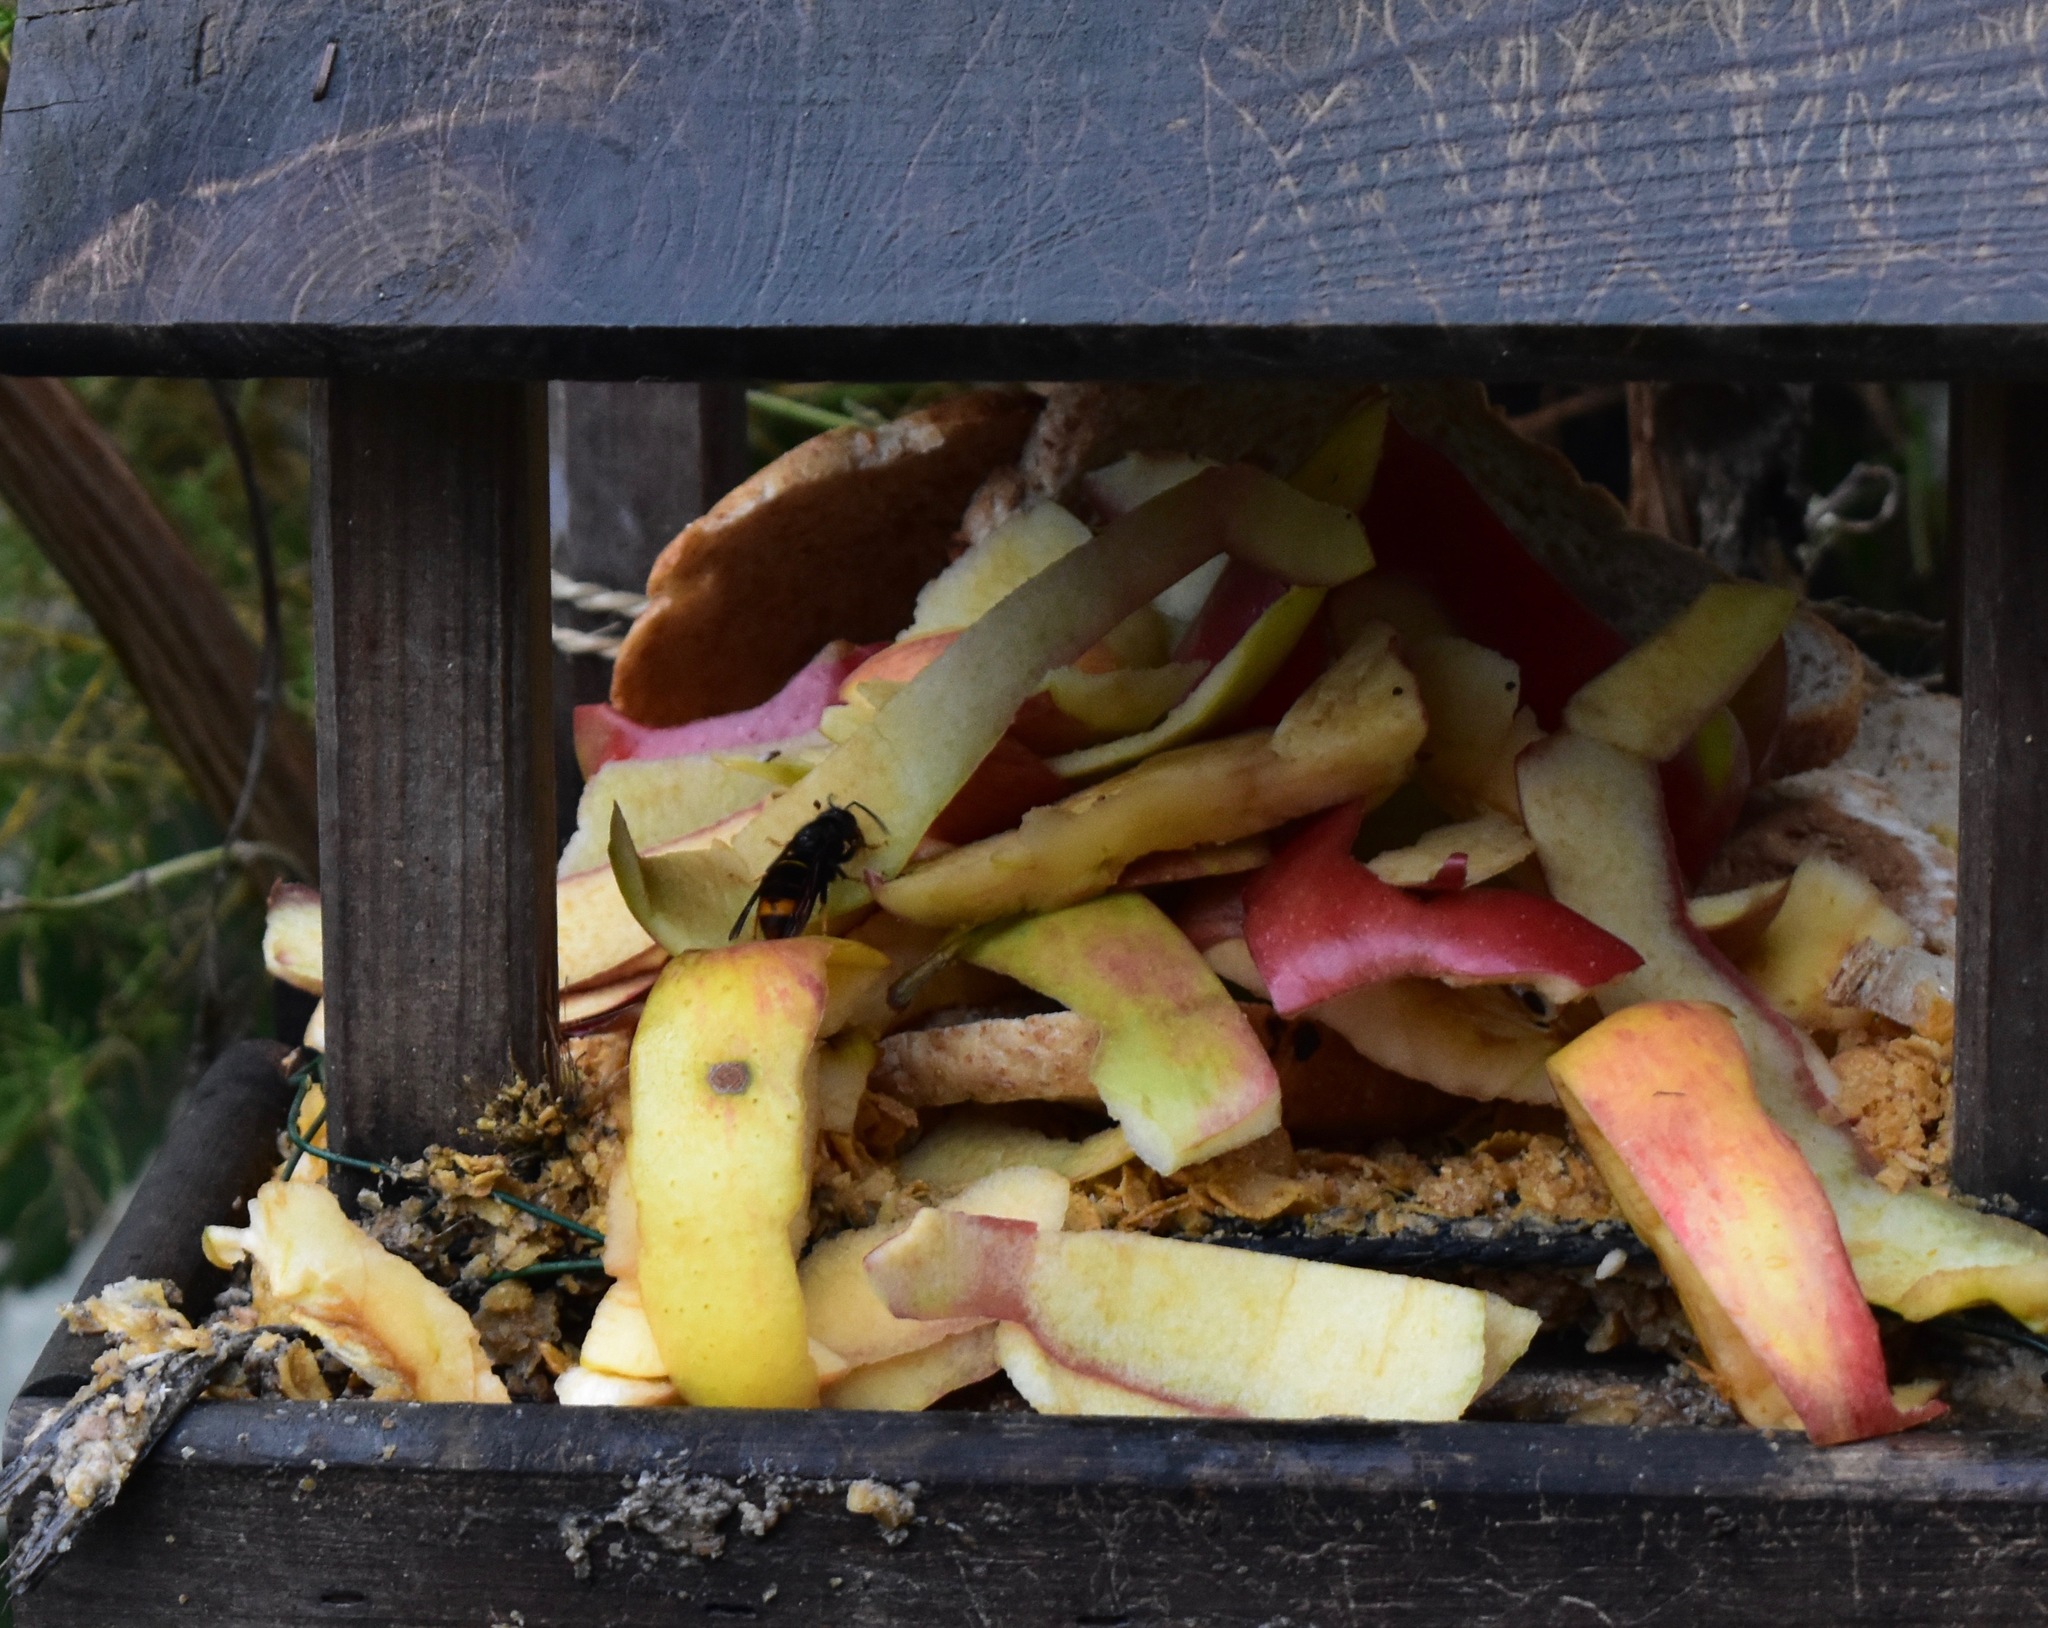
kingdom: Animalia
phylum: Arthropoda
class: Insecta
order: Hymenoptera
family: Vespidae
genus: Vespa
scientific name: Vespa velutina
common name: Asian hornet
